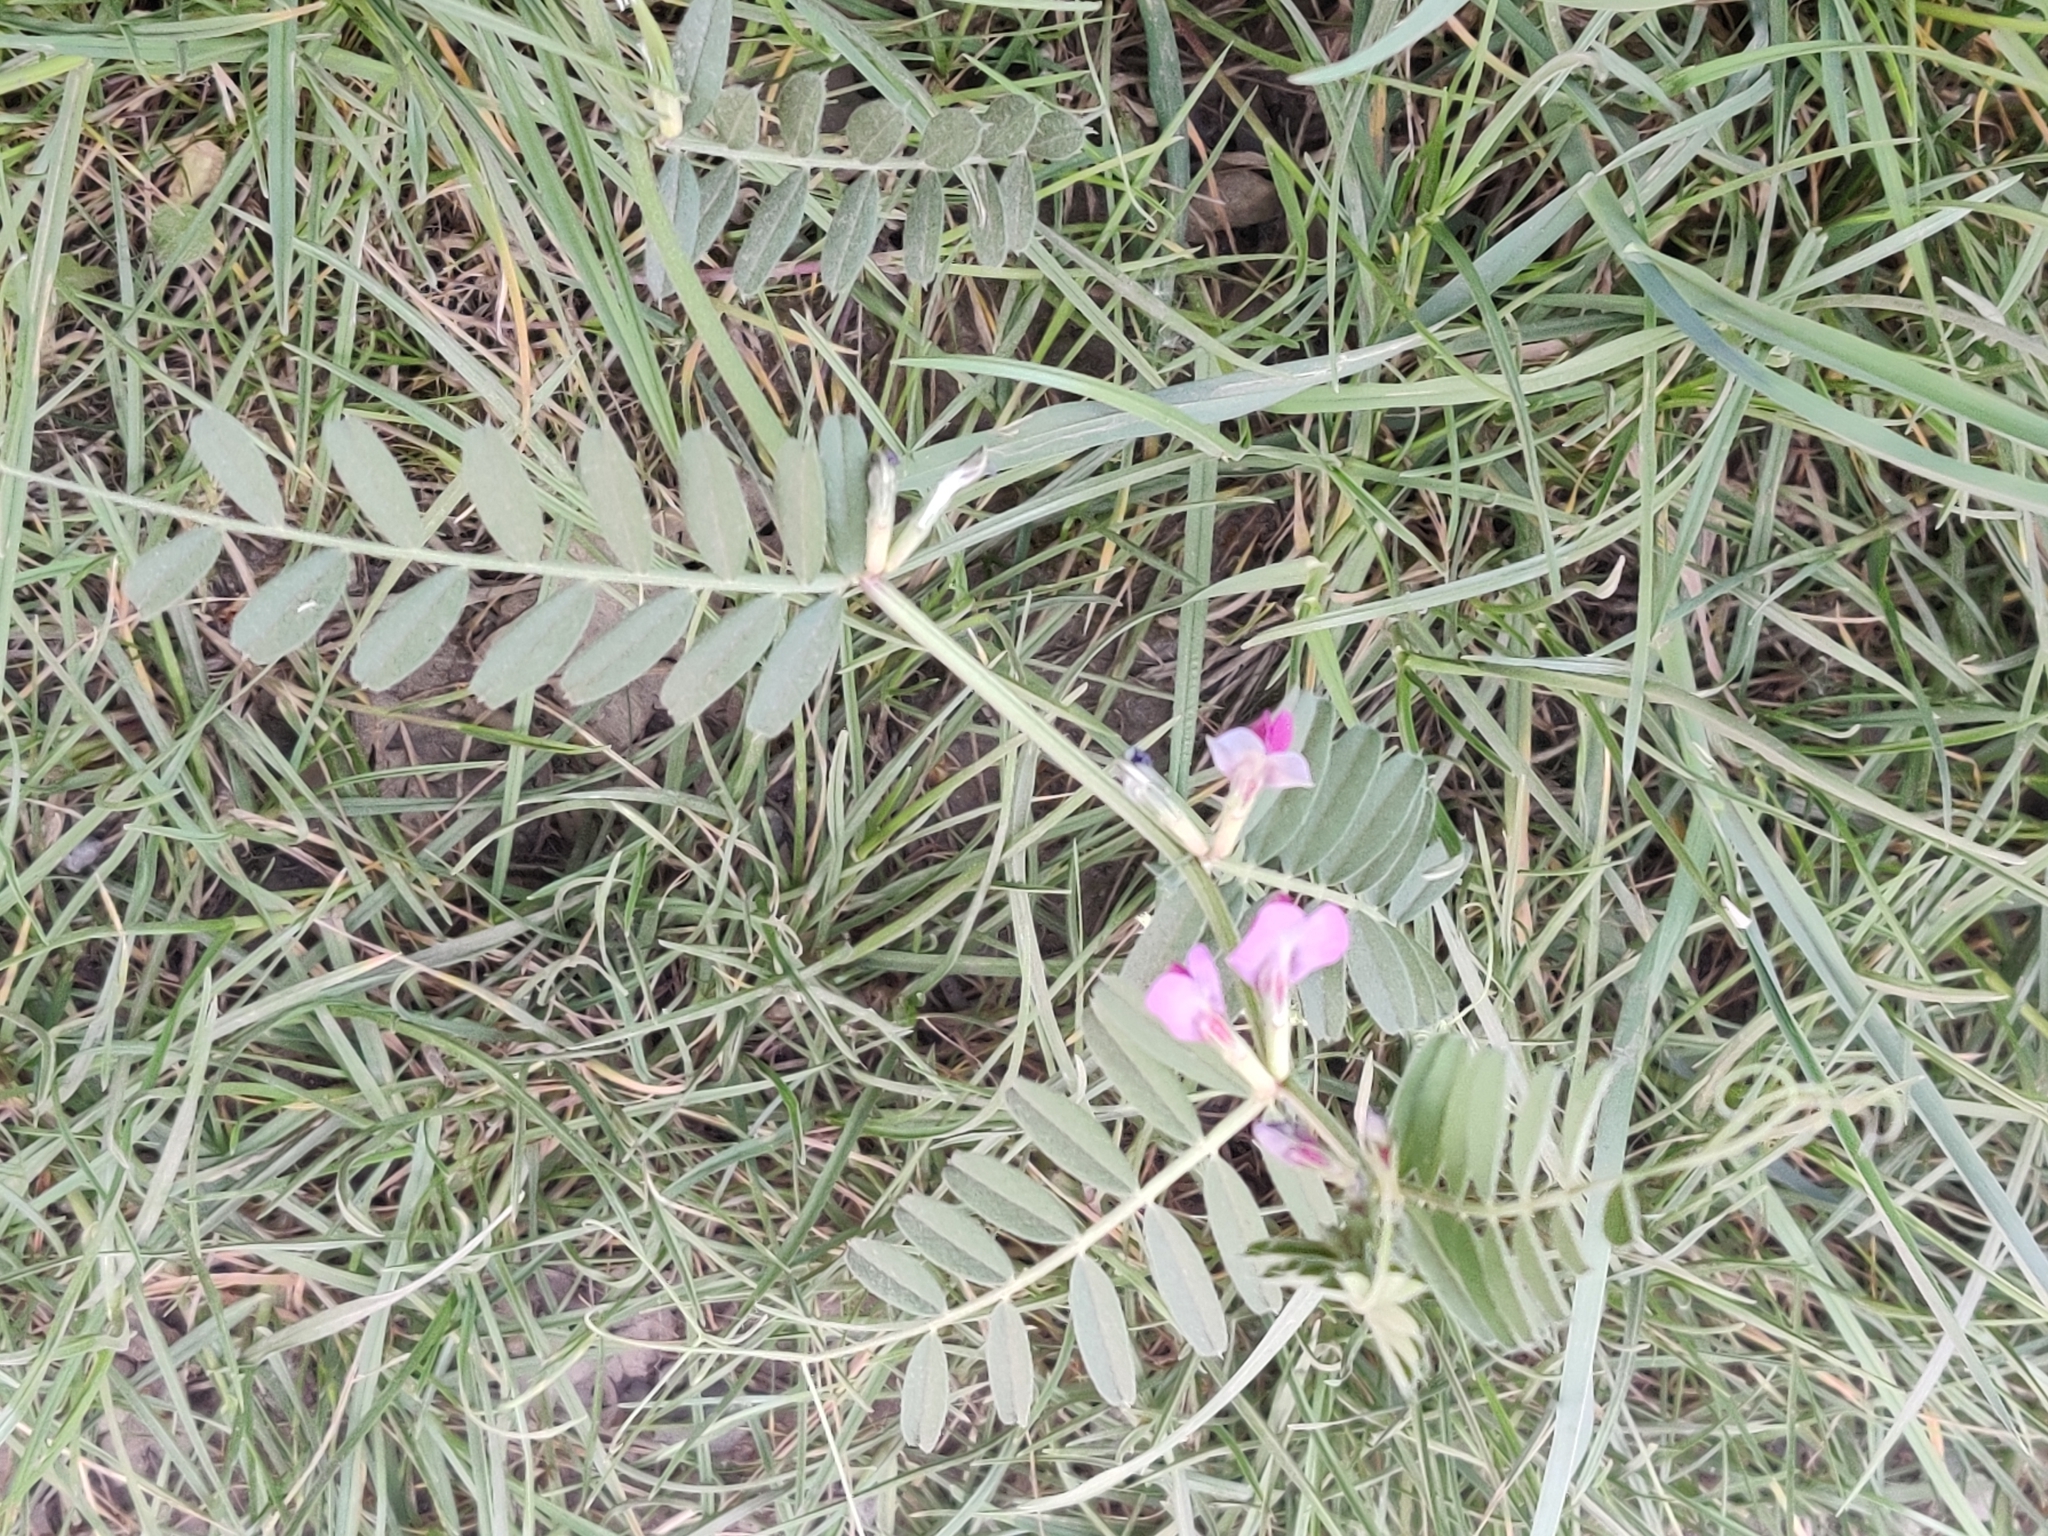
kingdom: Plantae
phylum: Tracheophyta
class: Magnoliopsida
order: Fabales
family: Fabaceae
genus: Vicia
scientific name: Vicia sepium
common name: Bush vetch
